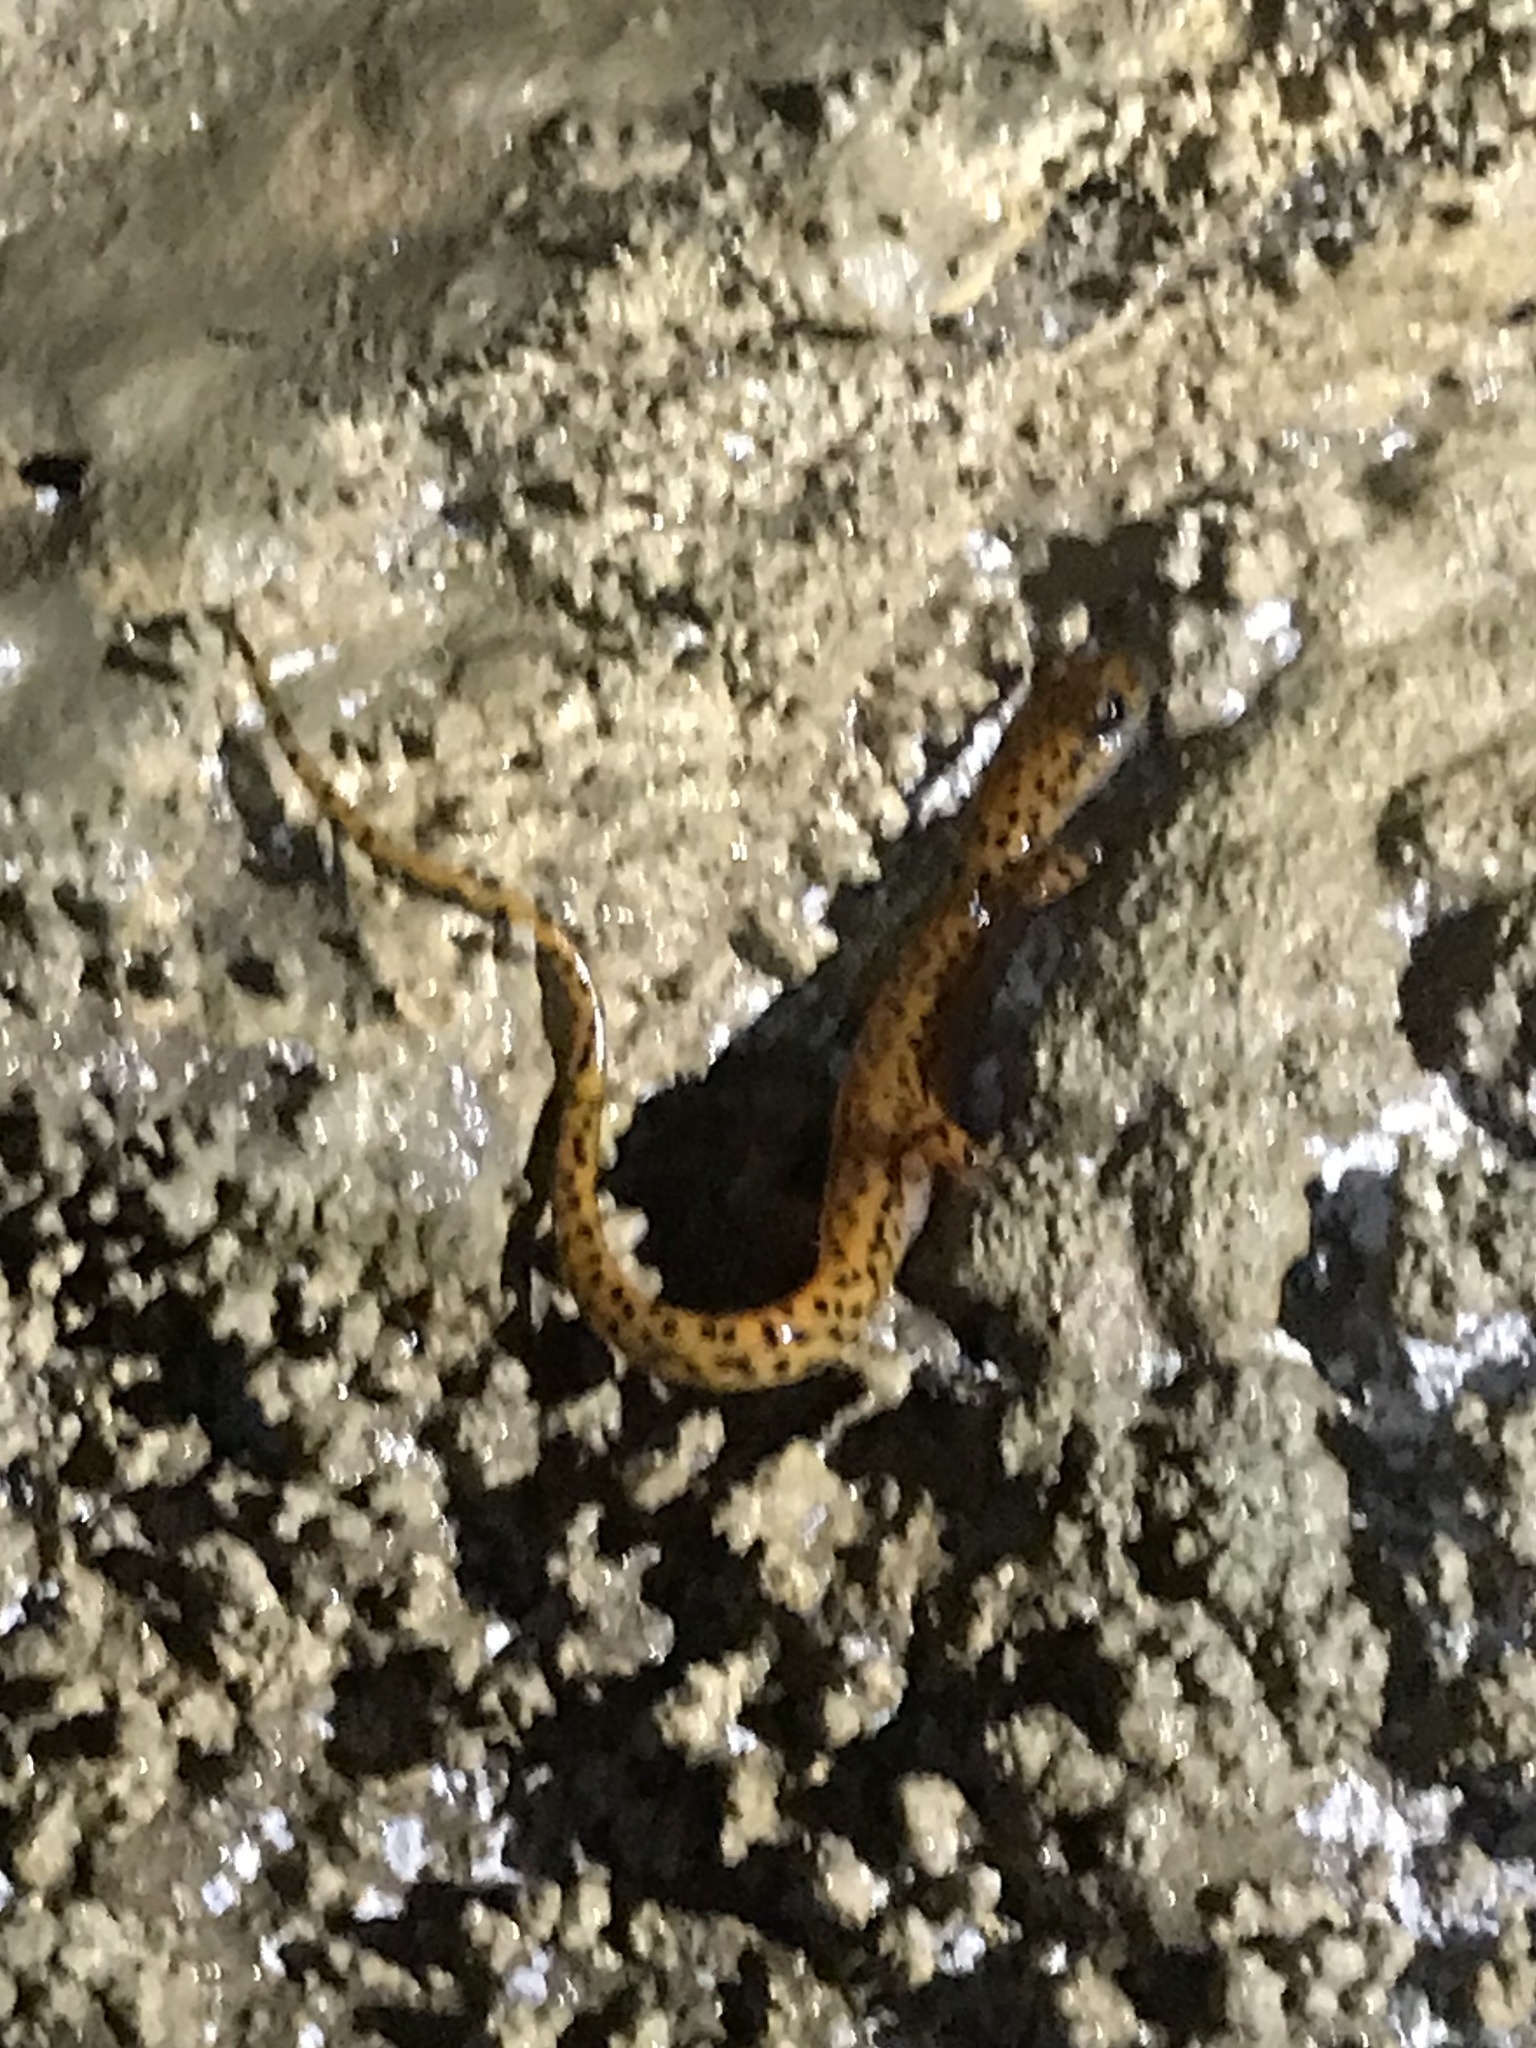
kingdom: Animalia
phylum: Chordata
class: Amphibia
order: Caudata
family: Plethodontidae
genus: Eurycea
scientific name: Eurycea lucifuga
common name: Cave salamander
